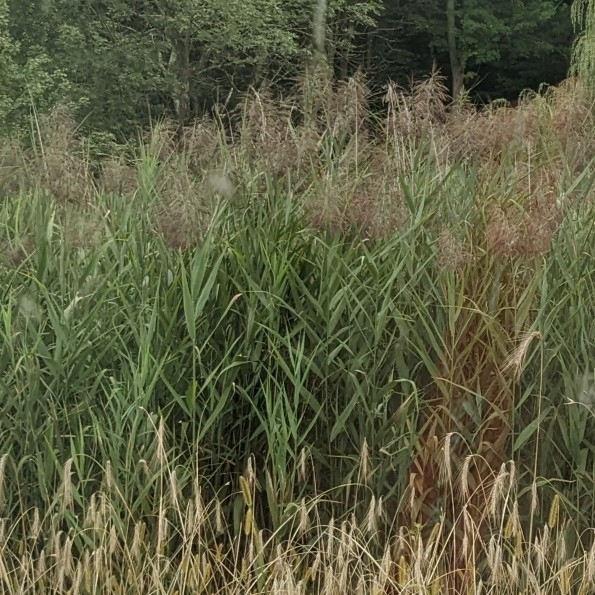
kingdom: Plantae
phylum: Tracheophyta
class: Liliopsida
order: Poales
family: Poaceae
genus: Phragmites
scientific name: Phragmites australis
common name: Common reed
